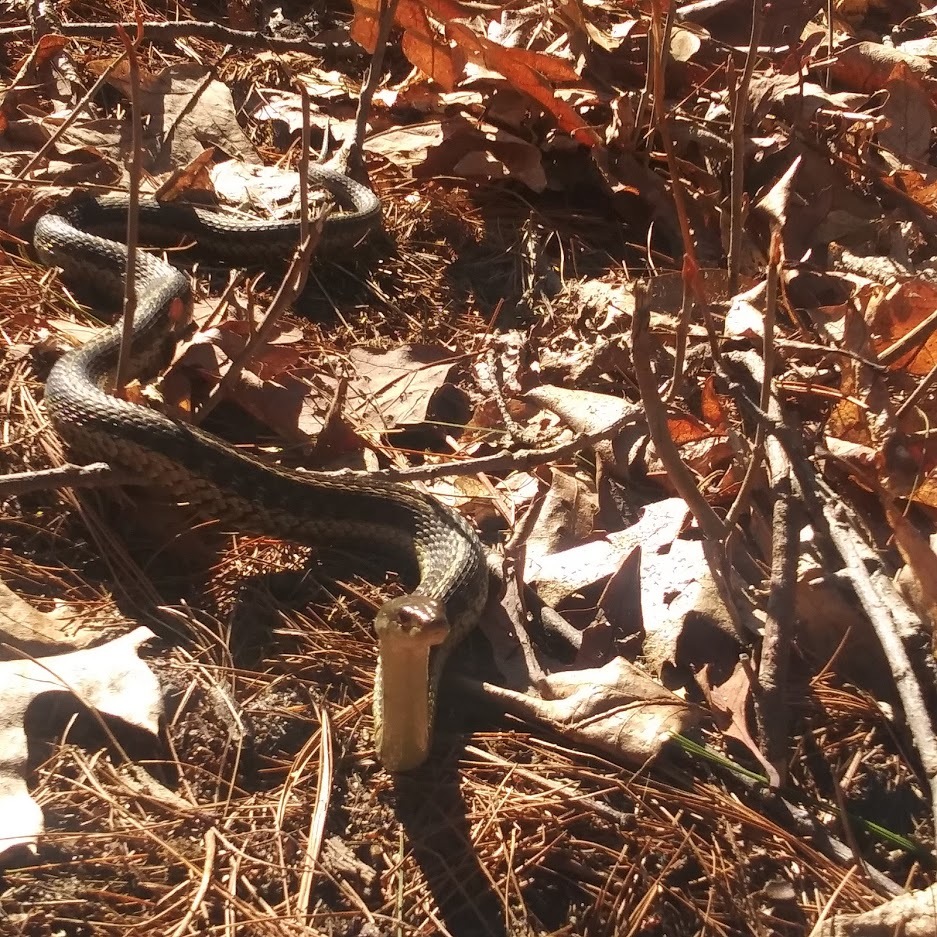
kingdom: Animalia
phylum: Chordata
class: Squamata
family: Colubridae
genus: Thamnophis
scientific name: Thamnophis sirtalis
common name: Common garter snake
